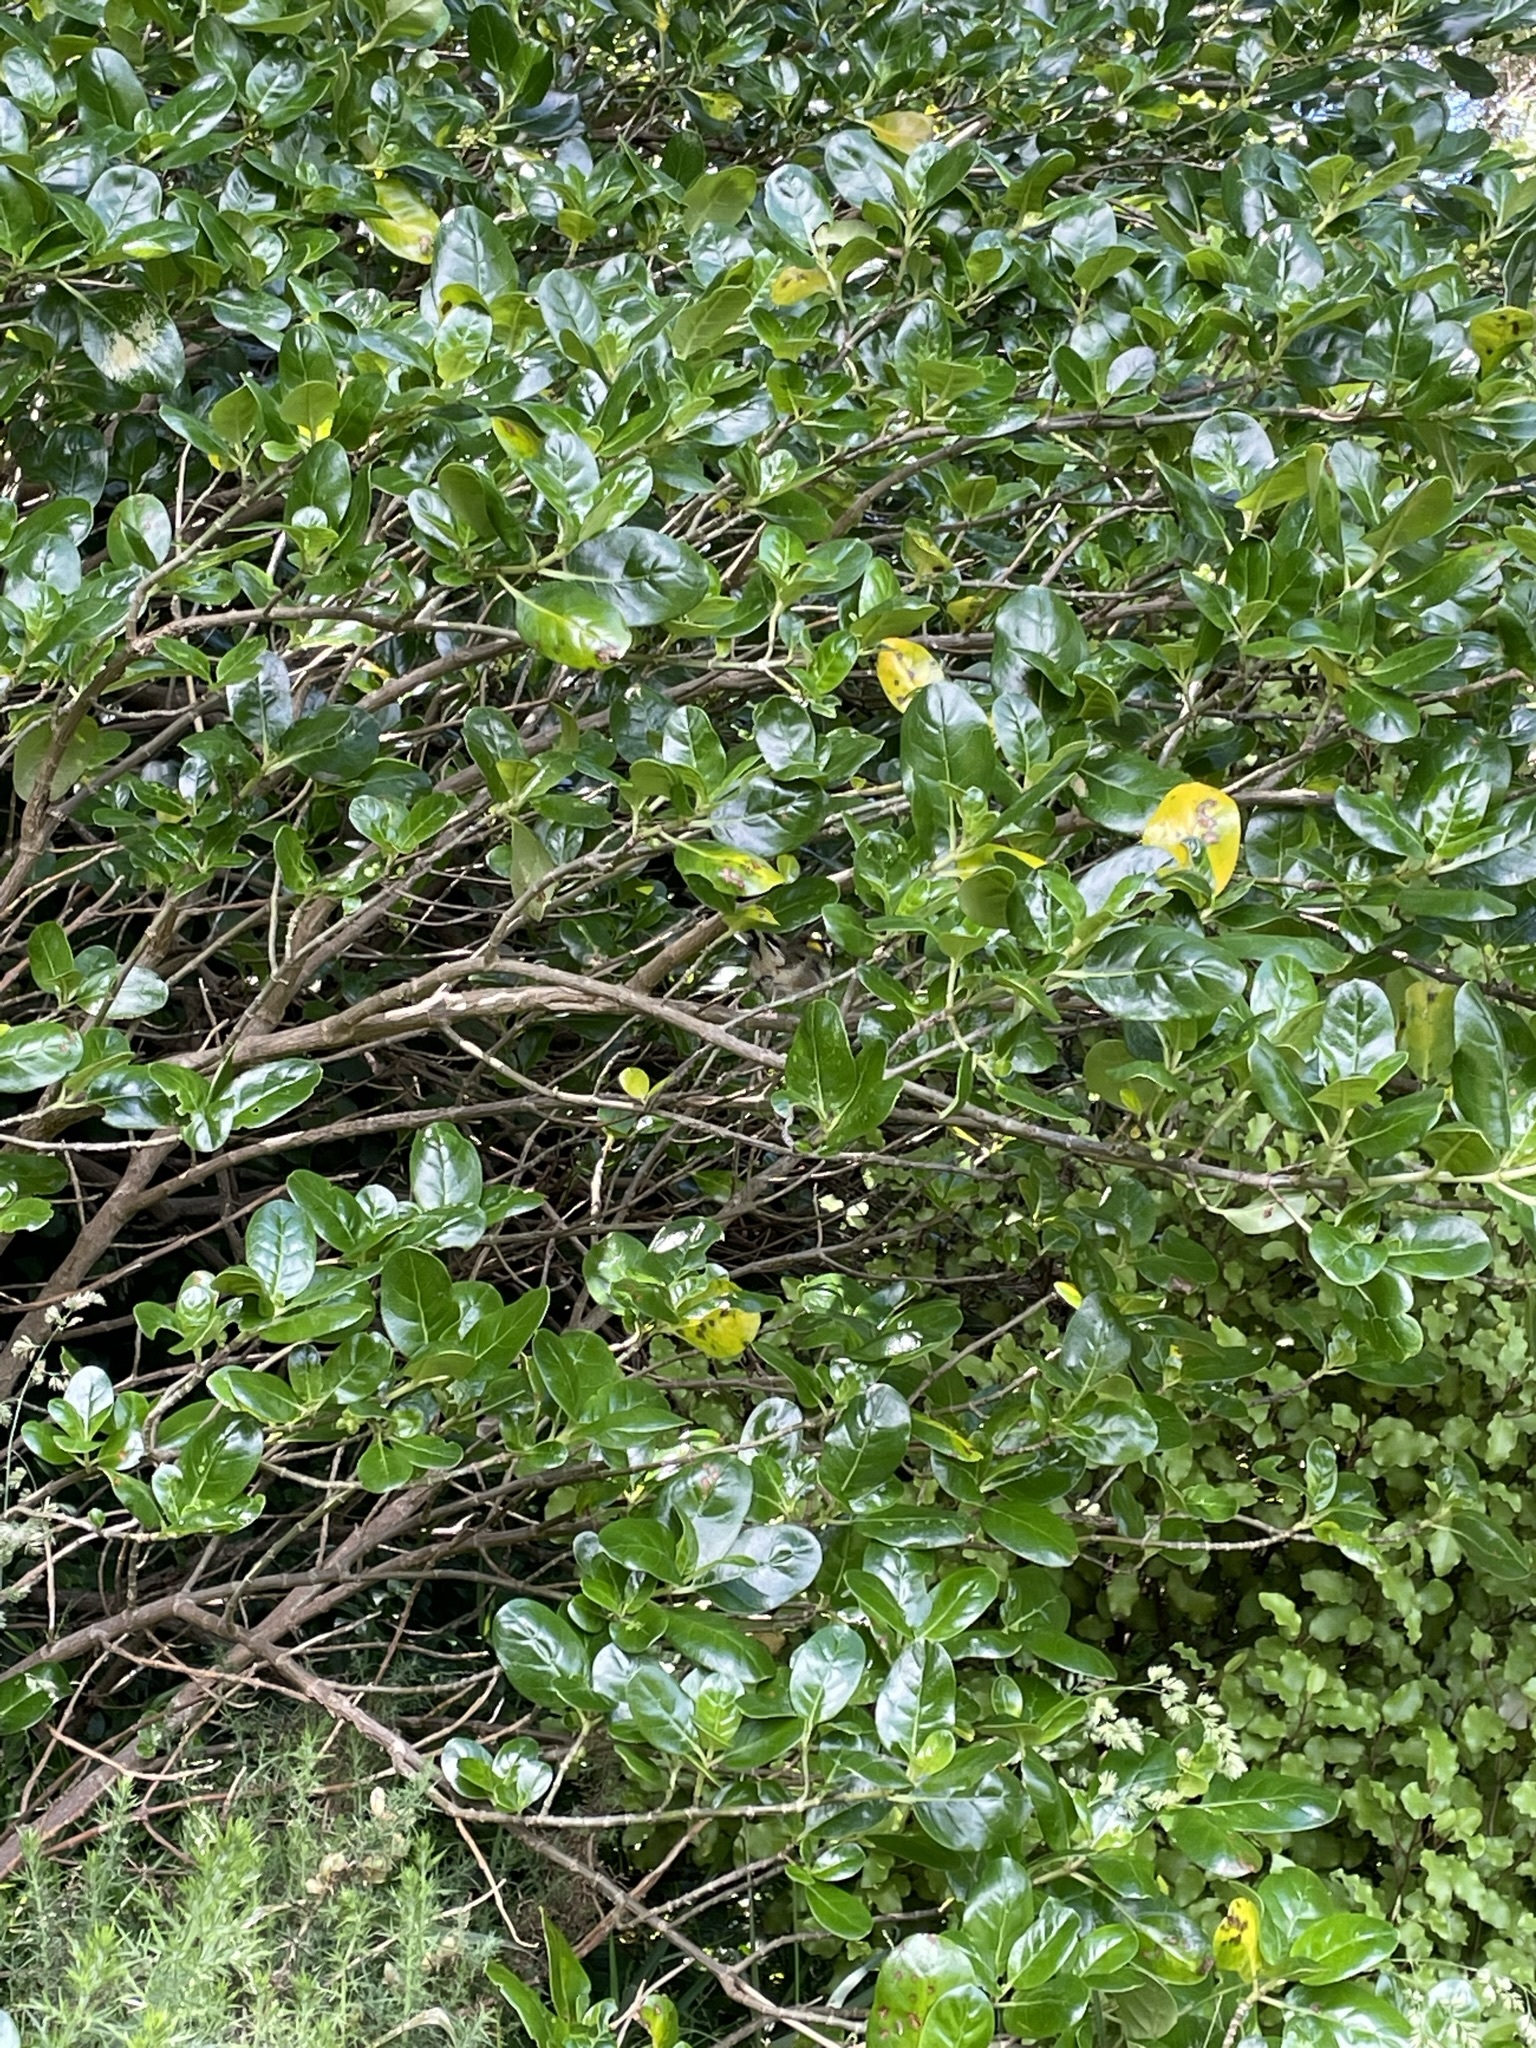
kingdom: Plantae
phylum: Tracheophyta
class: Magnoliopsida
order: Gentianales
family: Rubiaceae
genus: Coprosma
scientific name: Coprosma repens
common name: Tree bedstraw
